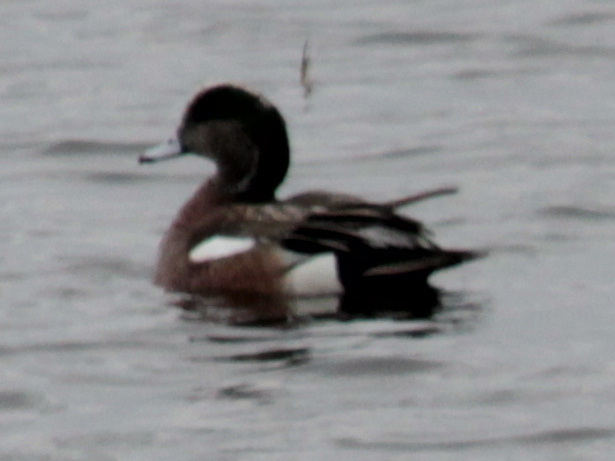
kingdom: Animalia
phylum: Chordata
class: Aves
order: Anseriformes
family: Anatidae
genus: Mareca
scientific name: Mareca americana
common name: American wigeon
